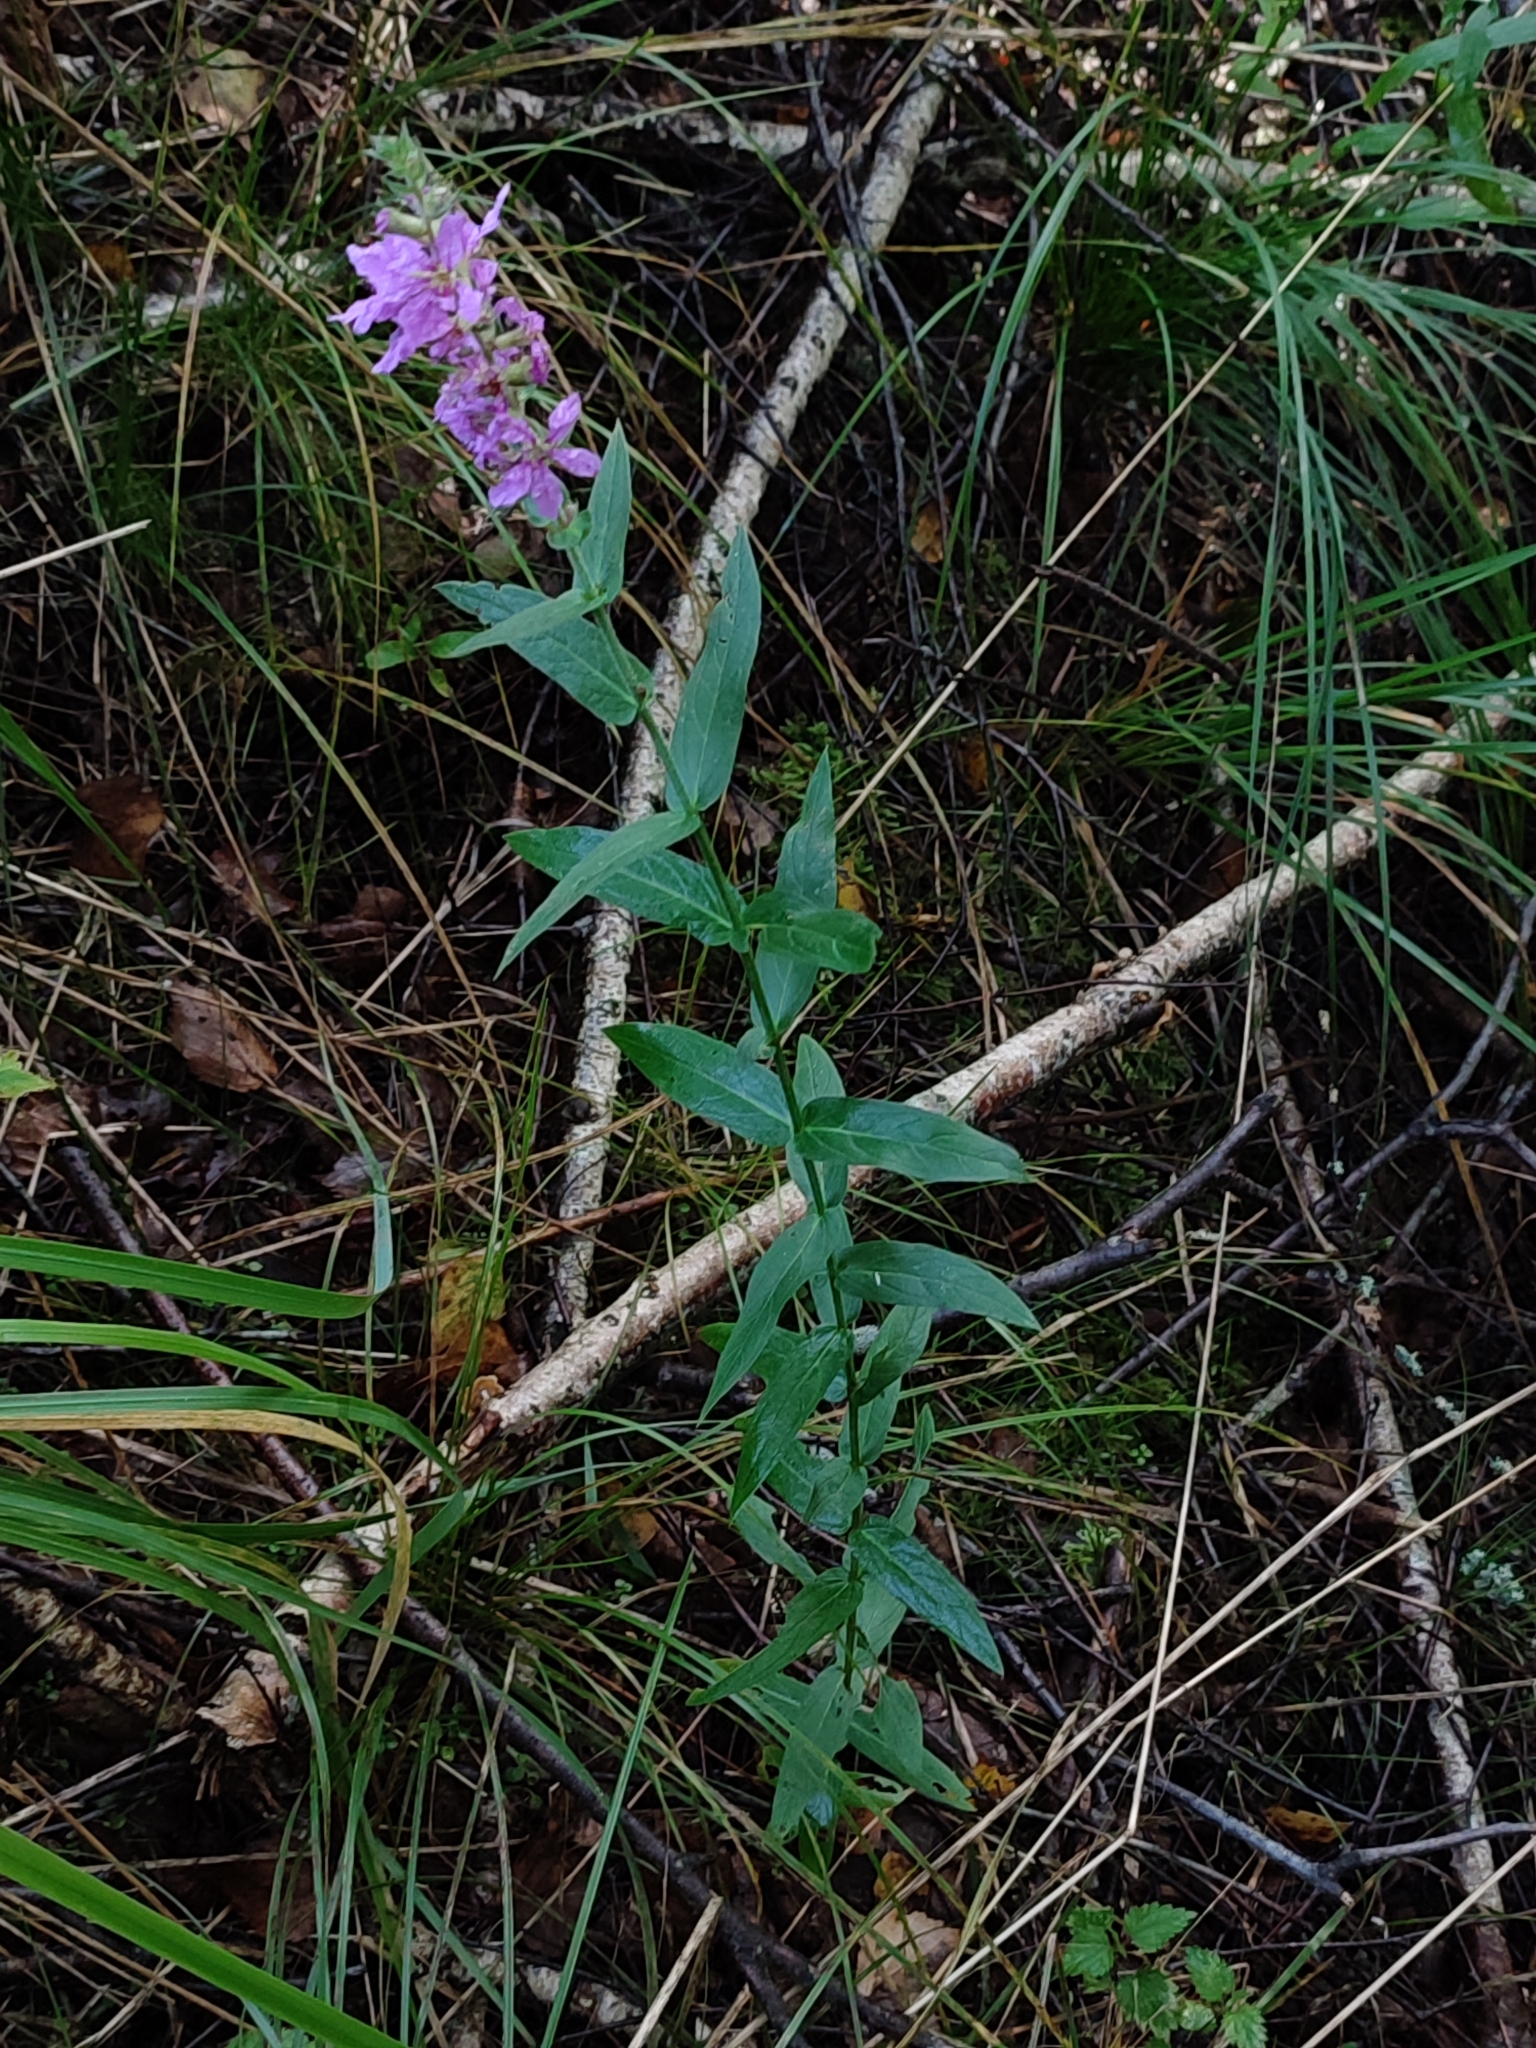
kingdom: Plantae
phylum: Tracheophyta
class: Magnoliopsida
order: Myrtales
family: Lythraceae
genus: Lythrum
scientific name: Lythrum salicaria
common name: Purple loosestrife
